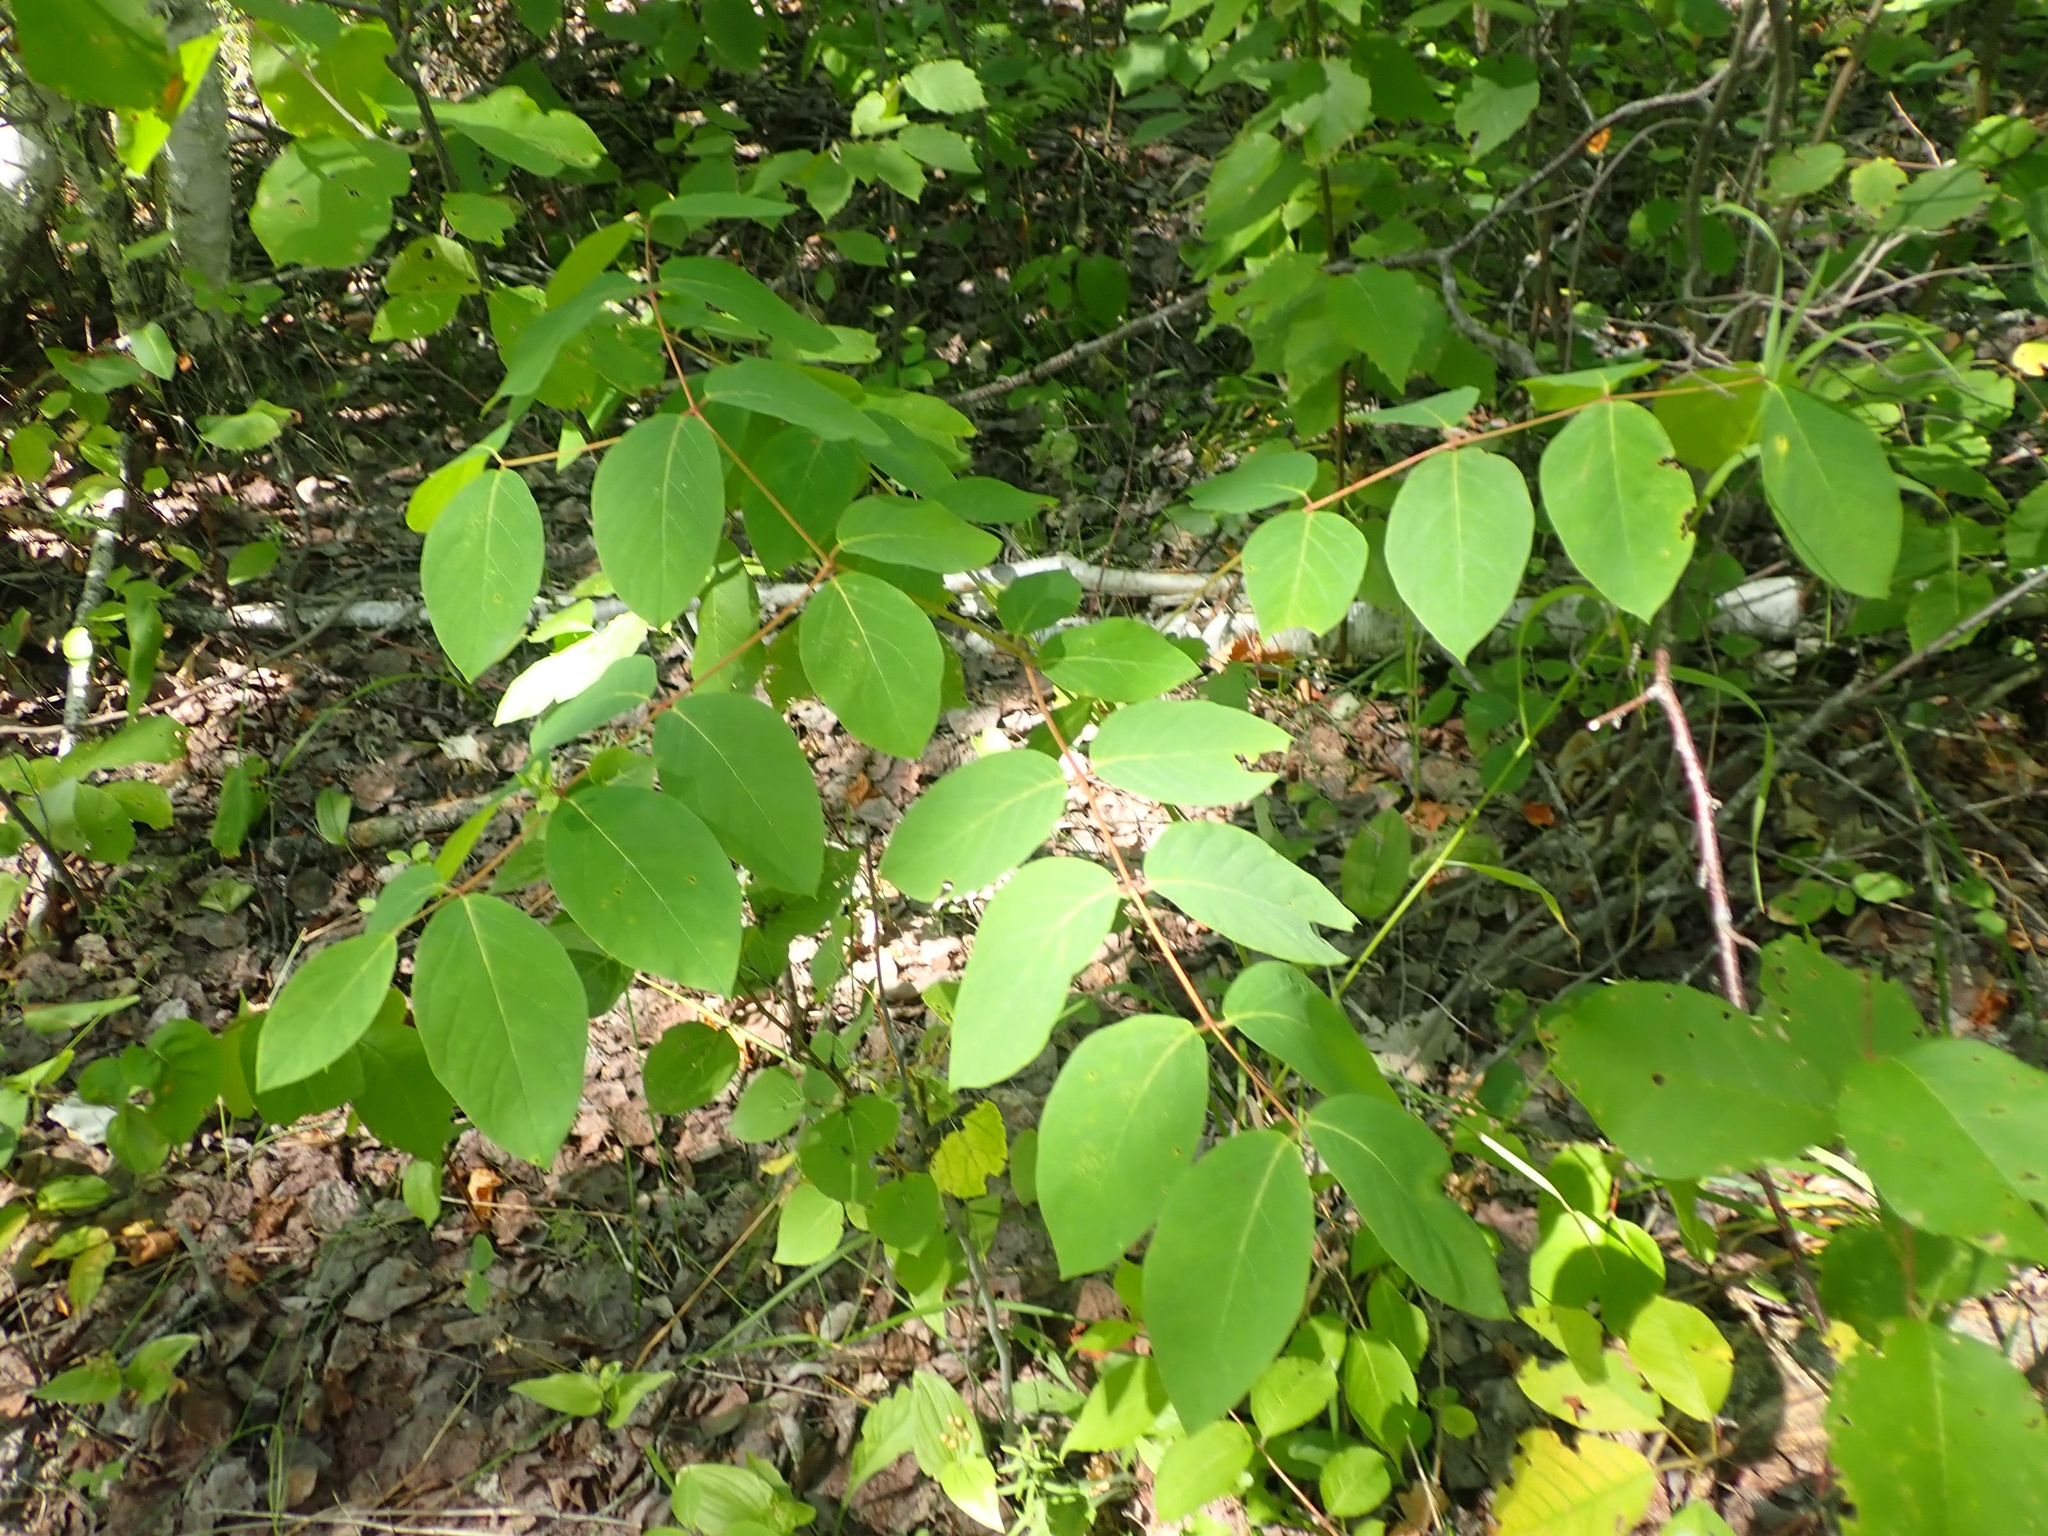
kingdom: Plantae
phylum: Tracheophyta
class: Magnoliopsida
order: Gentianales
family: Apocynaceae
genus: Apocynum
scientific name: Apocynum androsaemifolium
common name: Spreading dogbane
